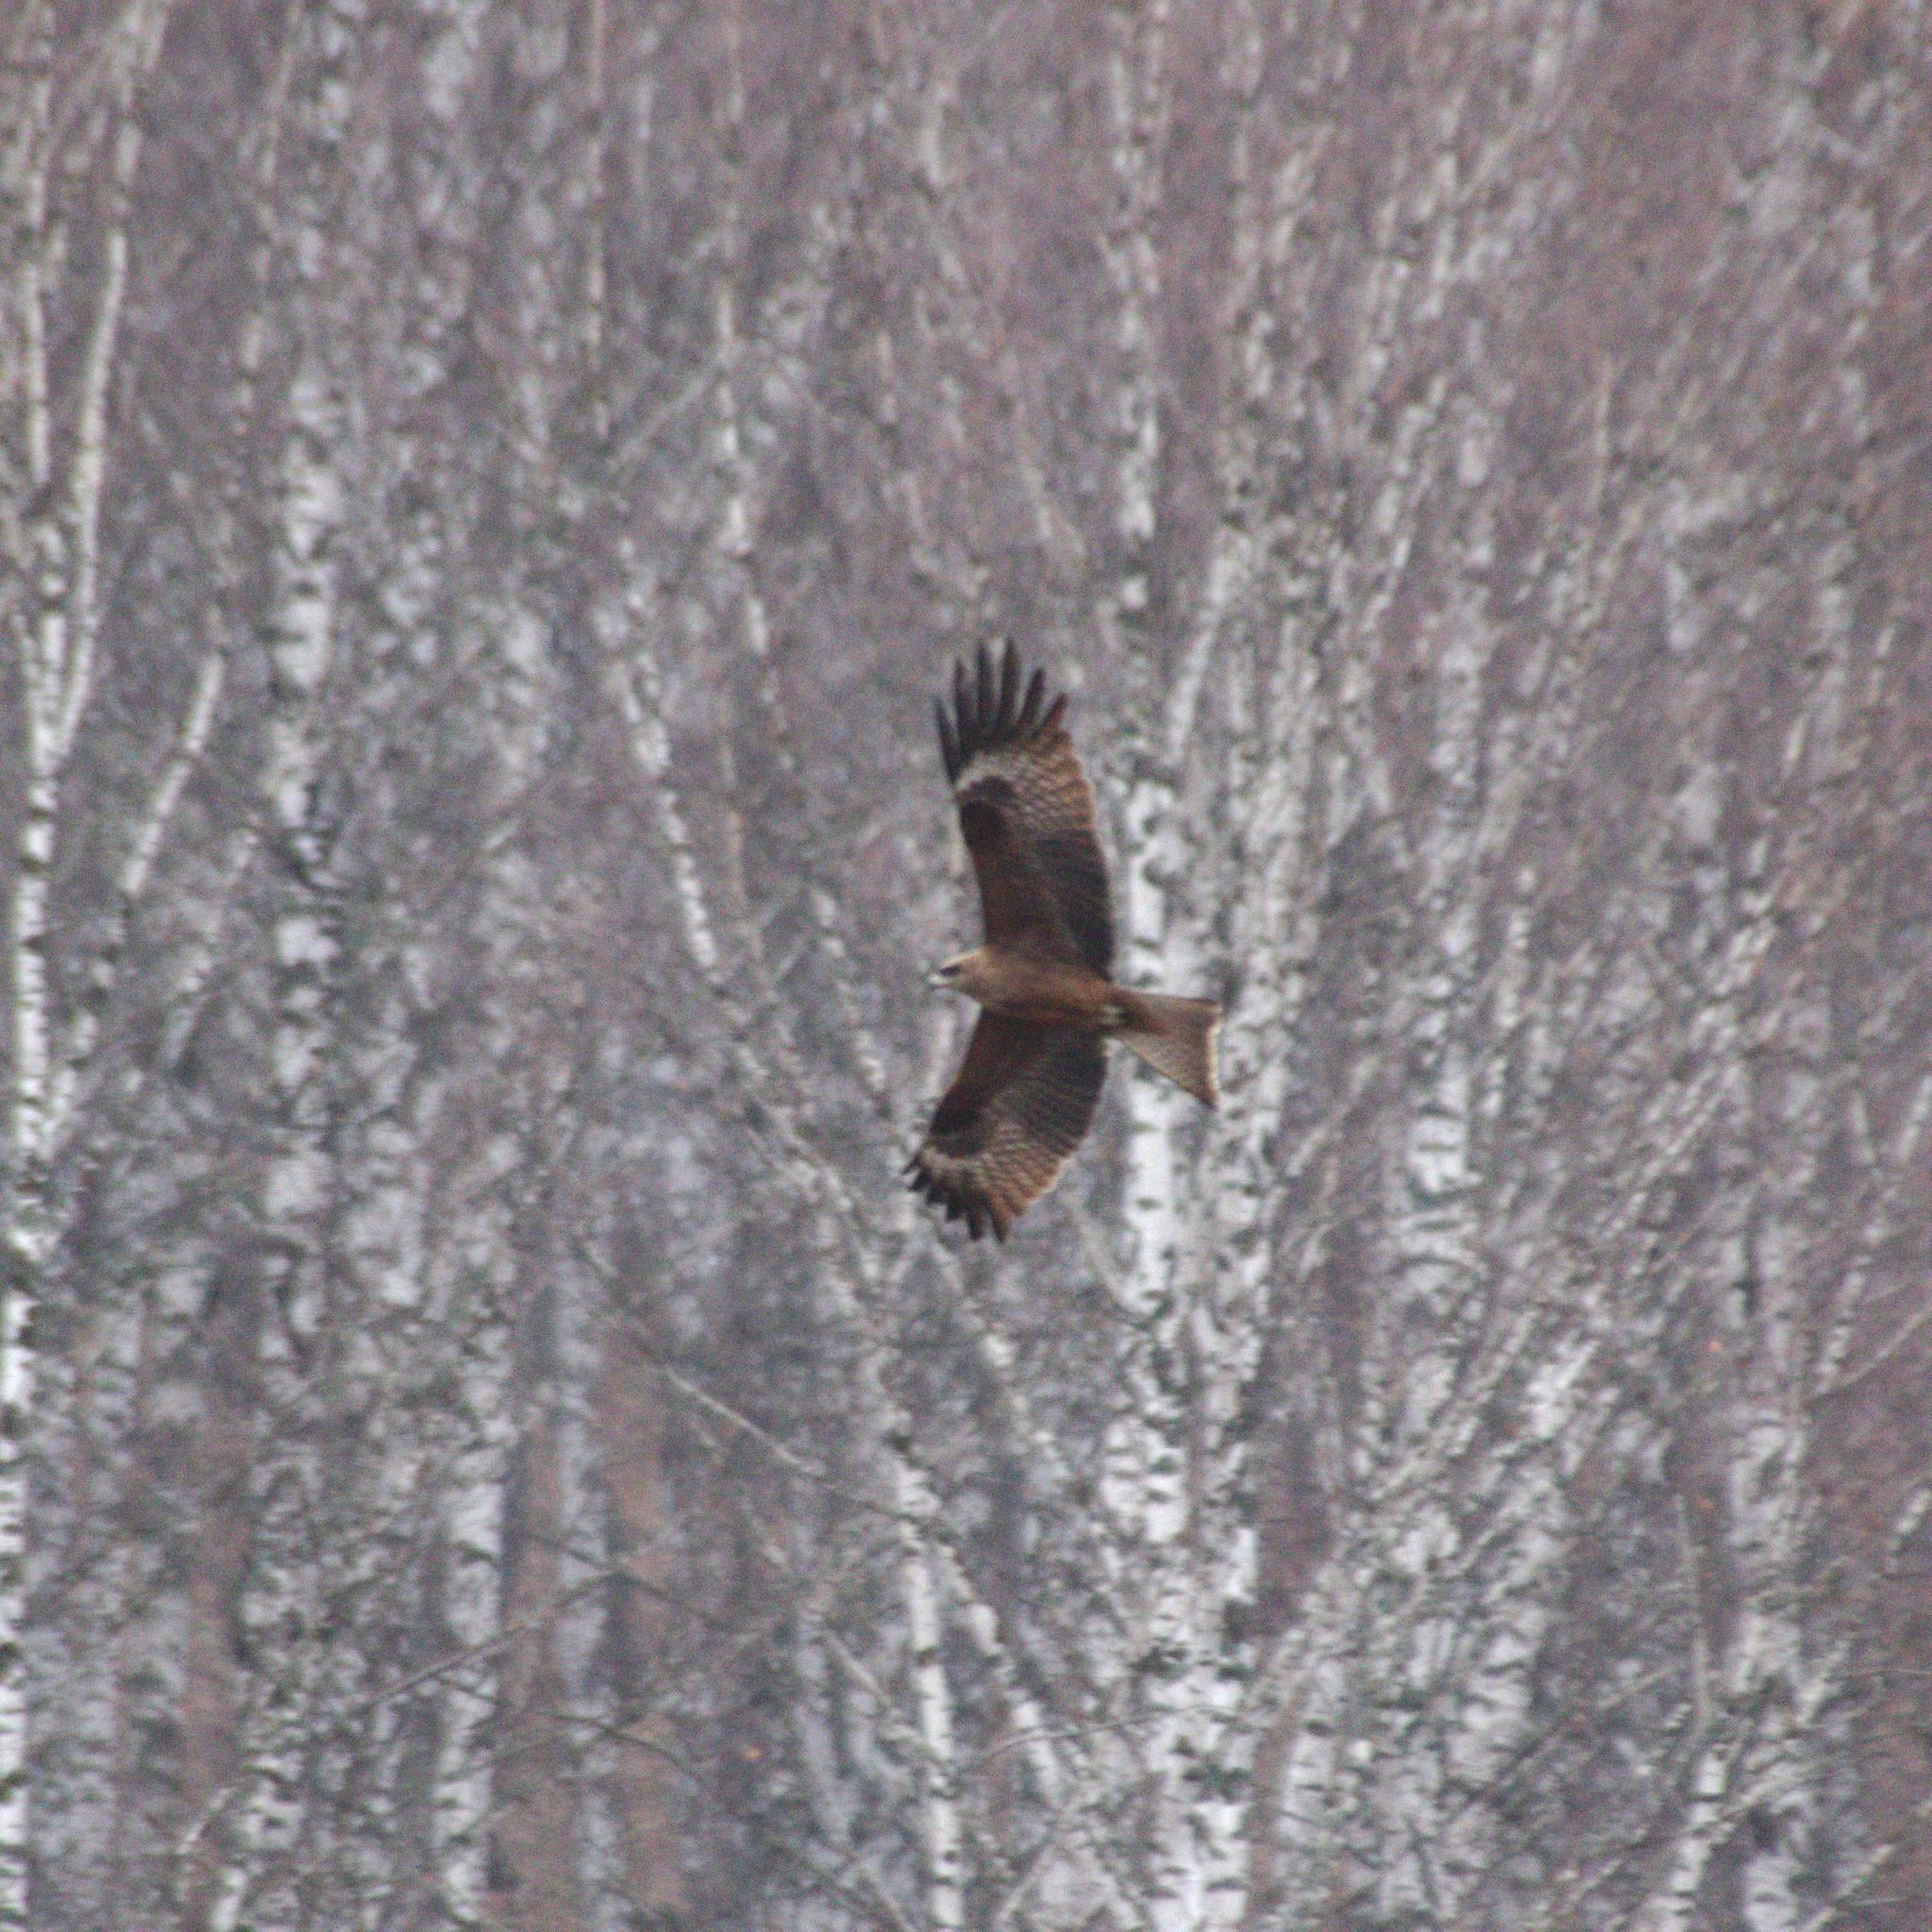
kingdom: Animalia
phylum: Chordata
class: Aves
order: Accipitriformes
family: Accipitridae
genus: Milvus
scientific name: Milvus migrans
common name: Black kite
